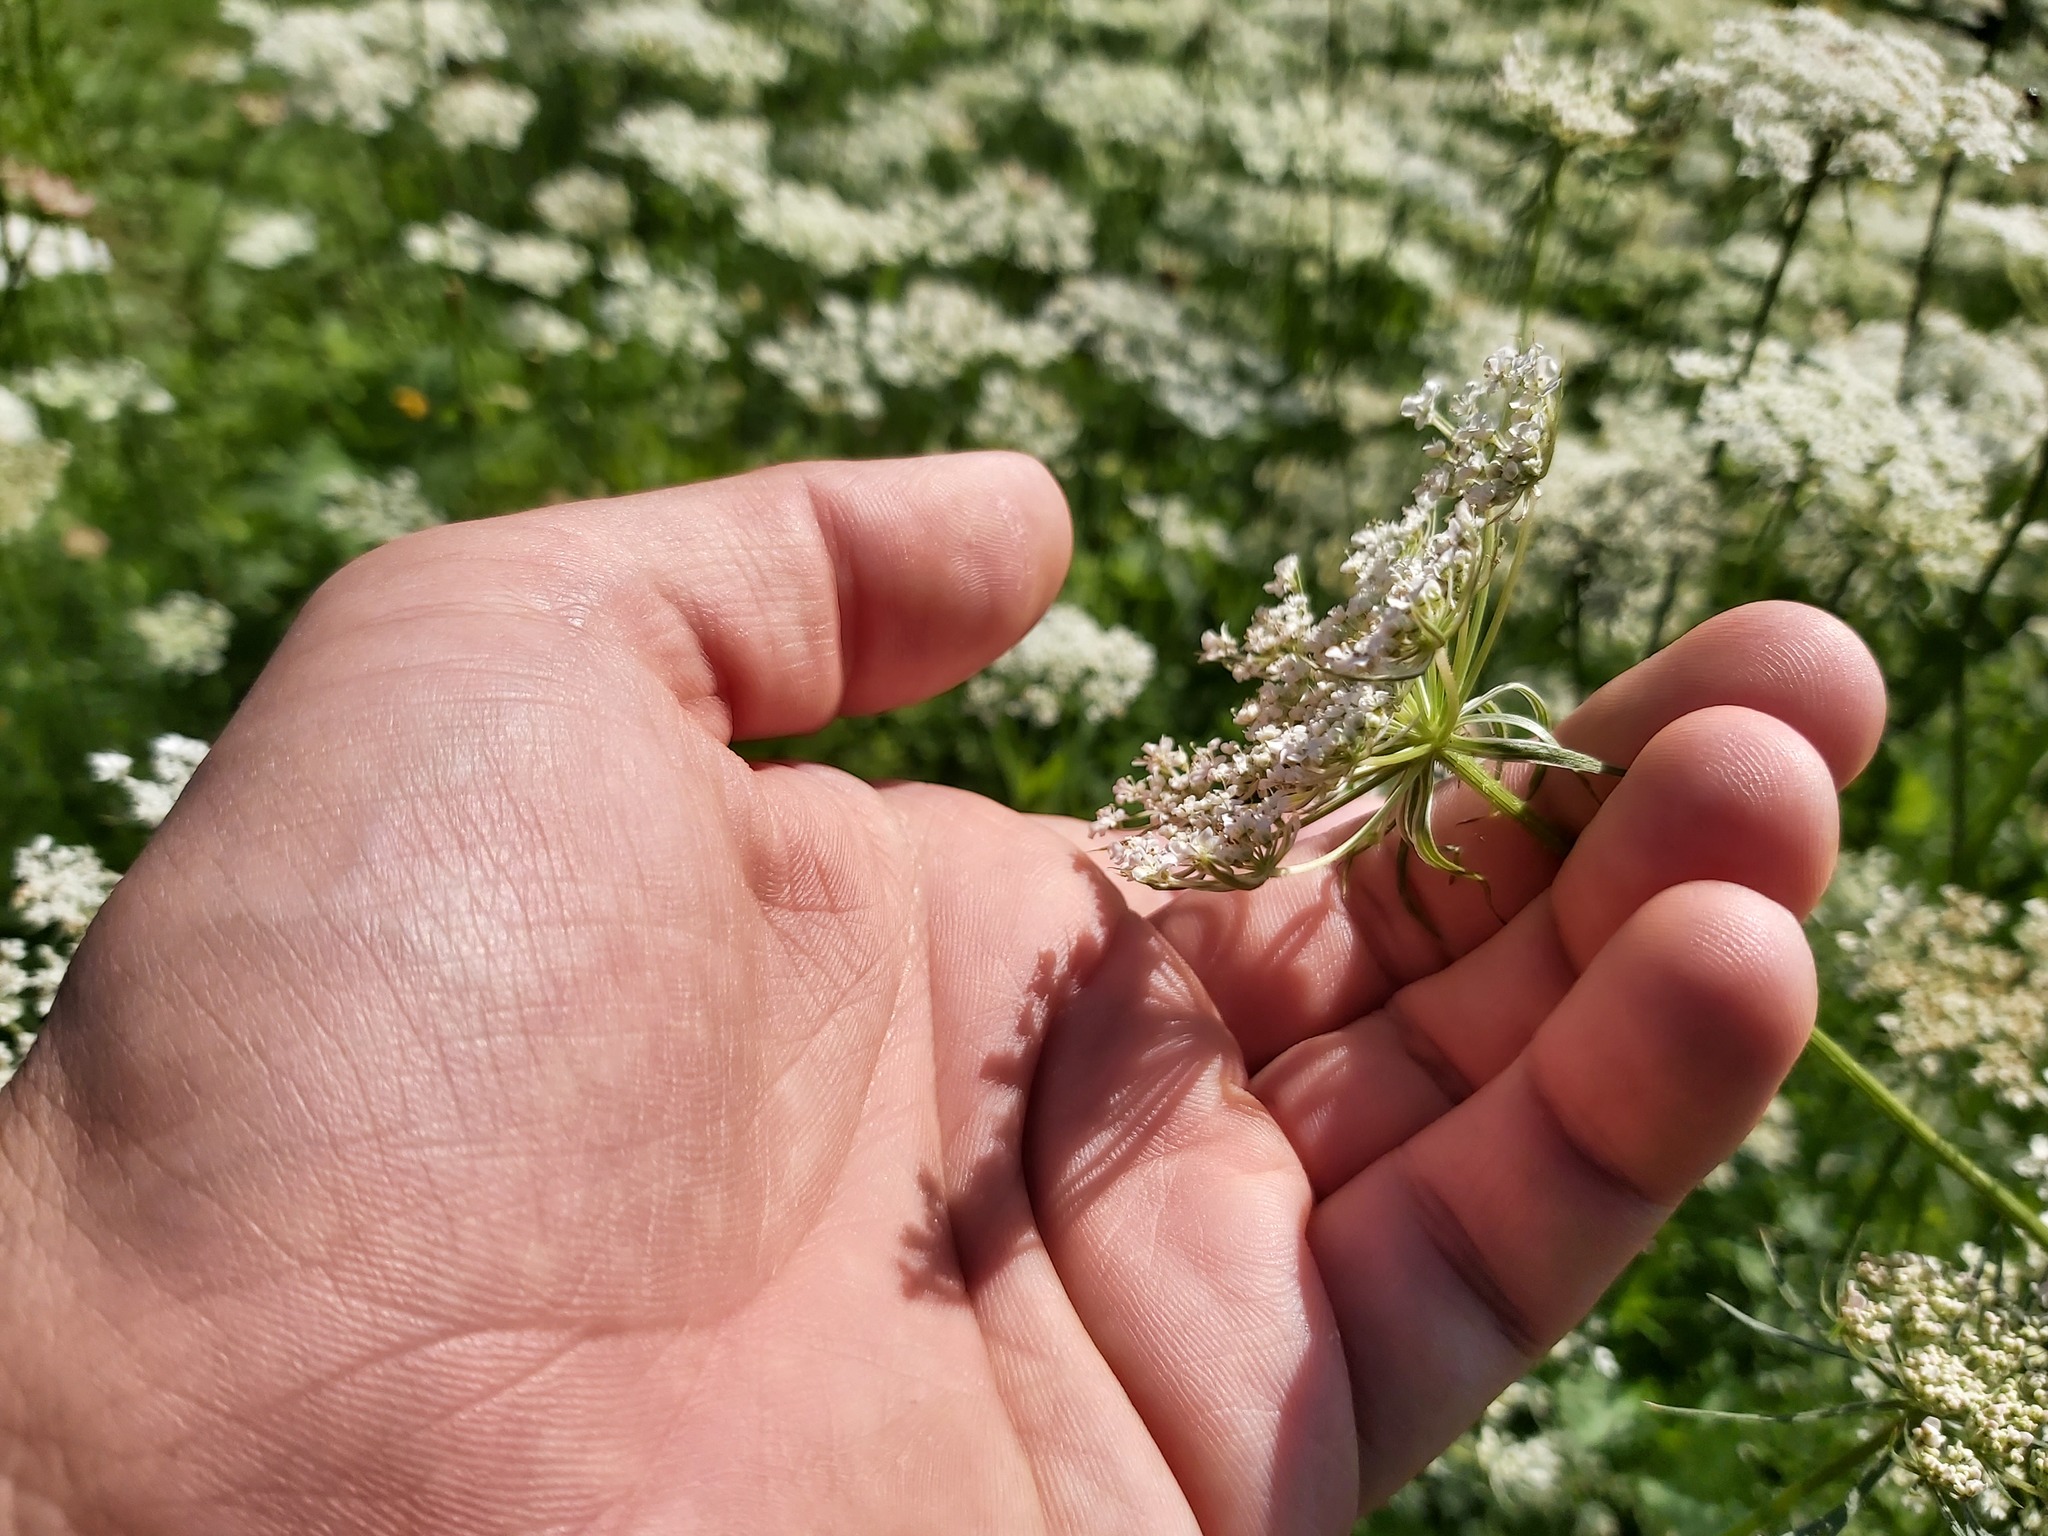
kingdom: Plantae
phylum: Tracheophyta
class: Magnoliopsida
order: Apiales
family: Apiaceae
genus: Daucus
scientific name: Daucus carota
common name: Wild carrot
